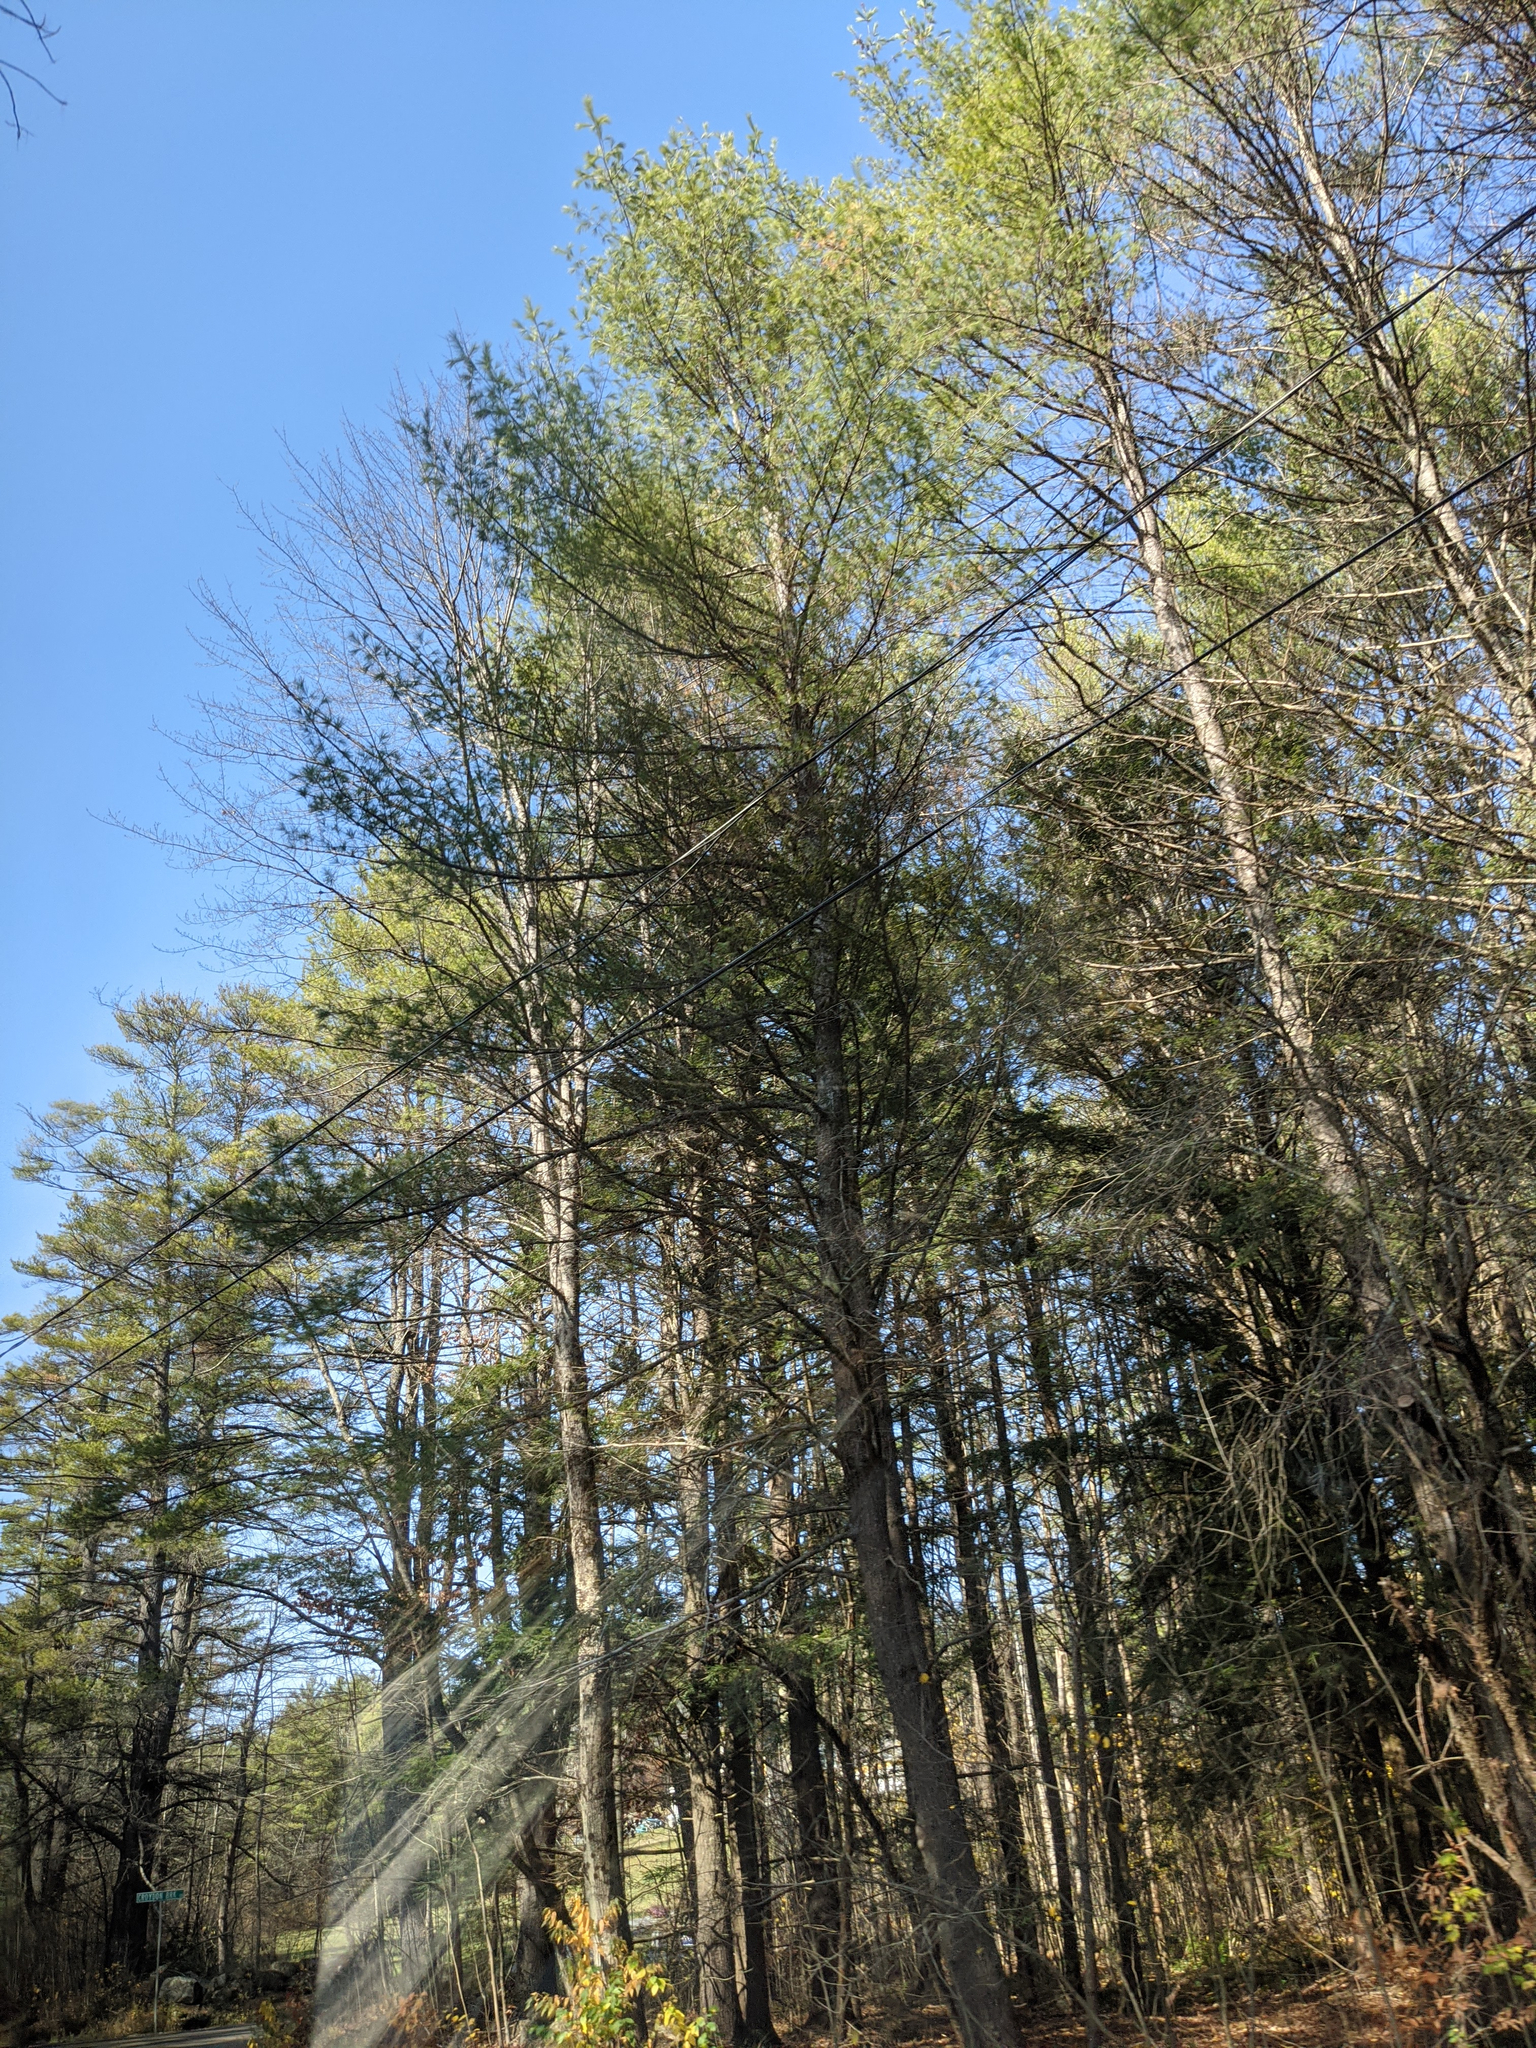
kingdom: Plantae
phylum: Tracheophyta
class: Pinopsida
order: Pinales
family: Pinaceae
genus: Pinus
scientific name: Pinus strobus
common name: Weymouth pine
